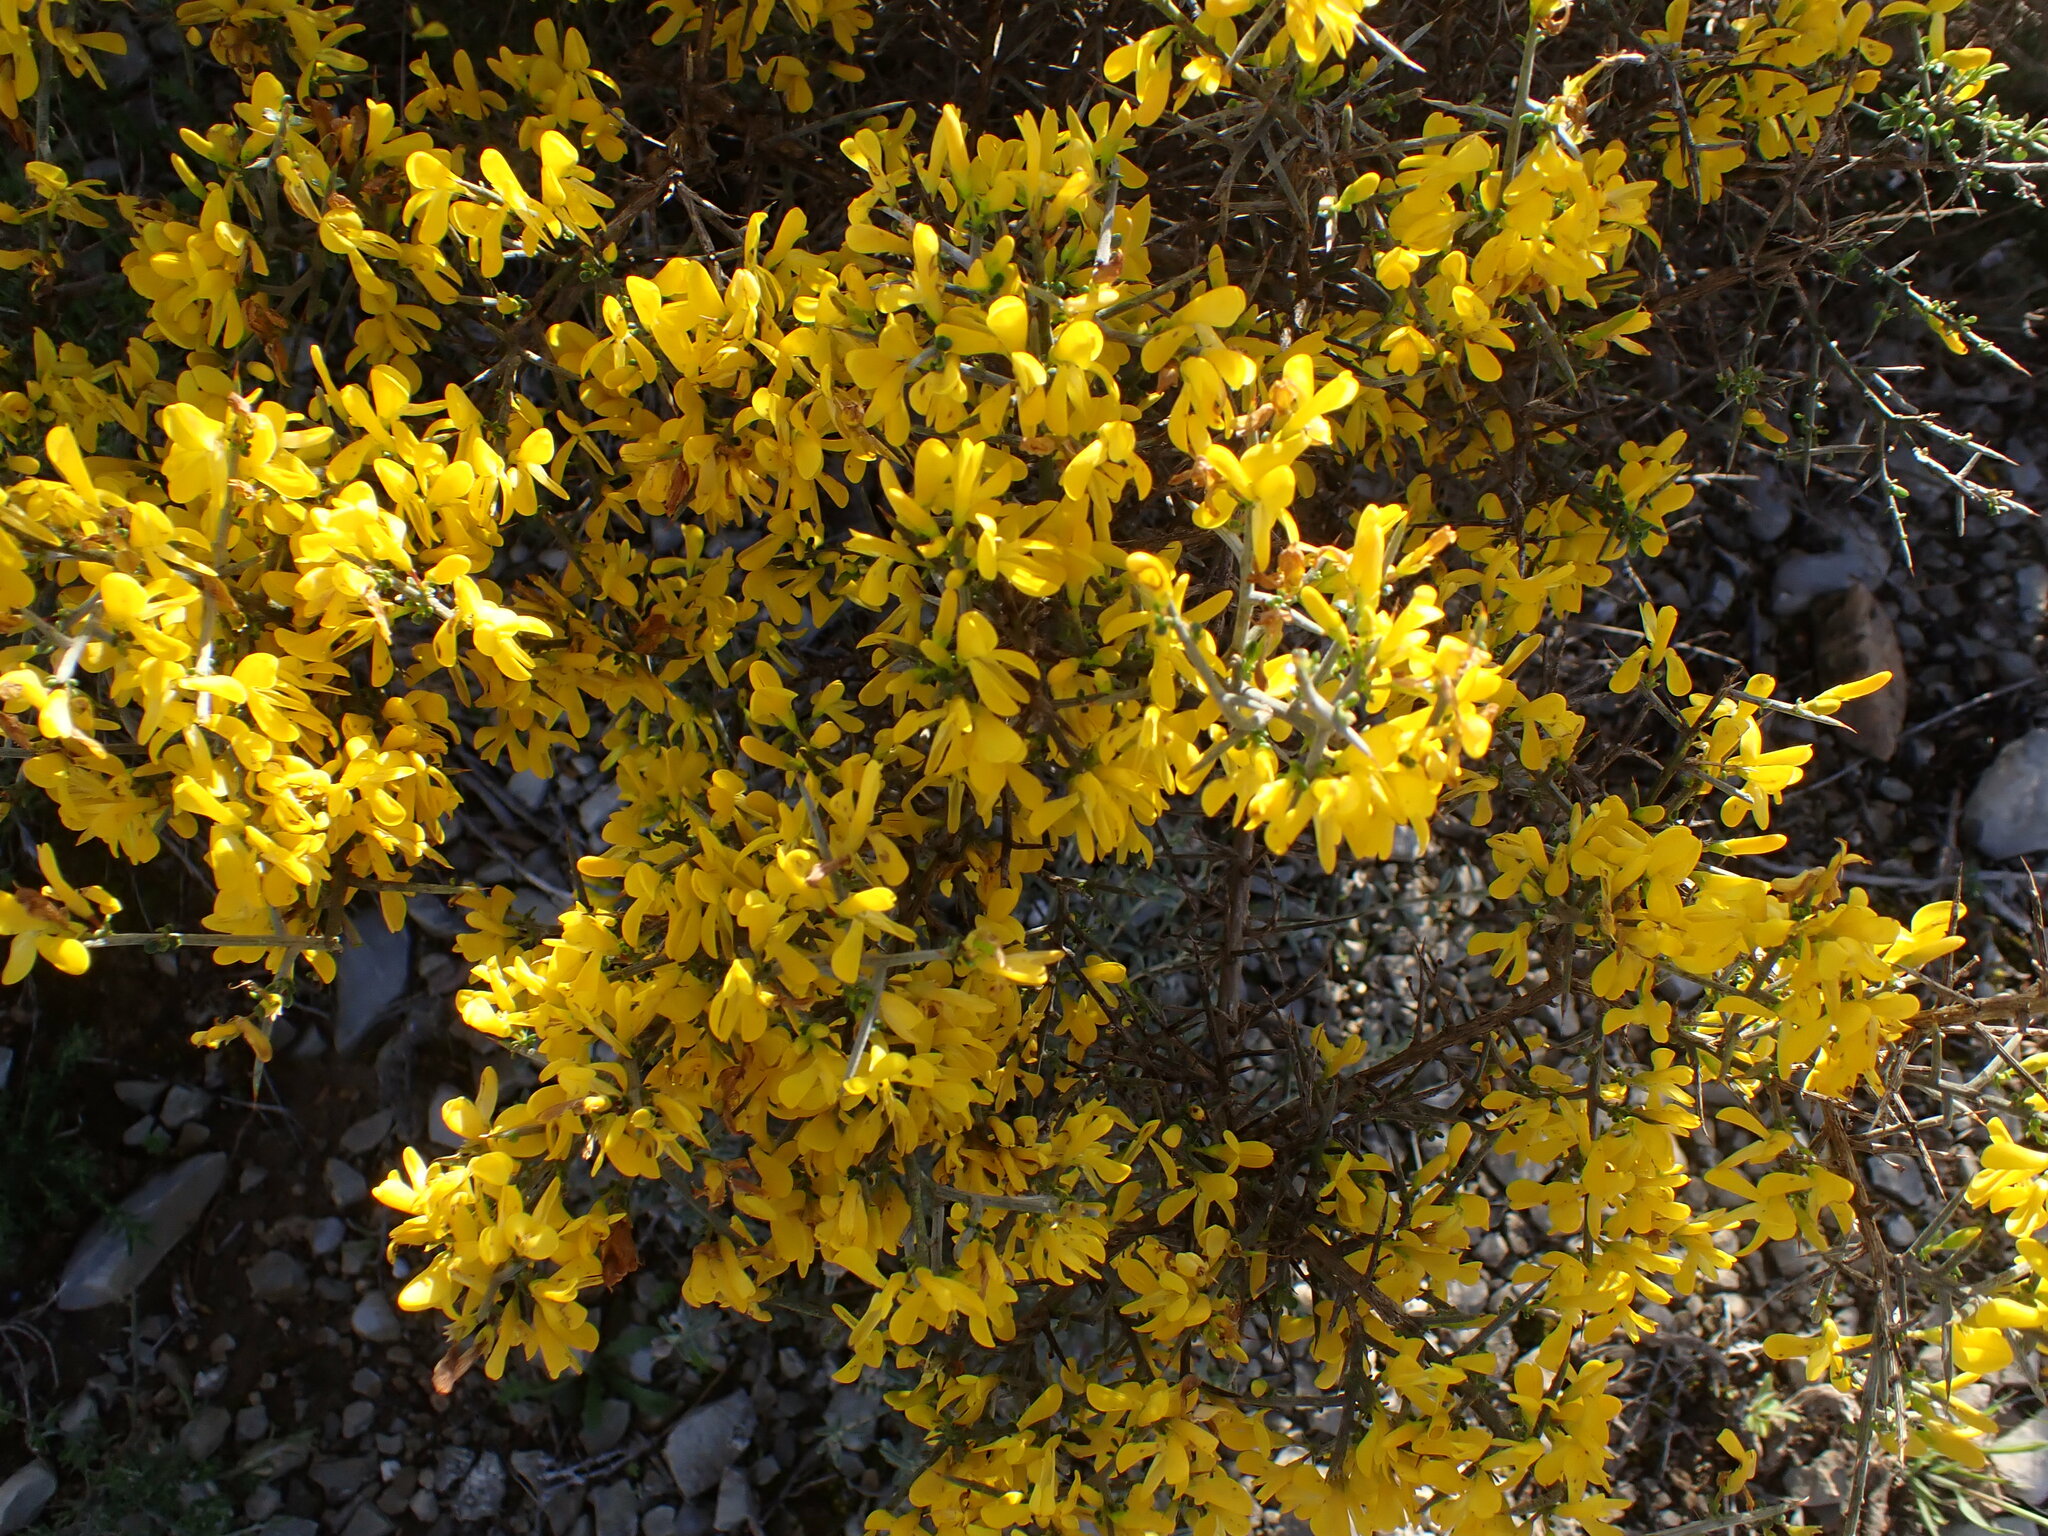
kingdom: Plantae
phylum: Tracheophyta
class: Magnoliopsida
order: Fabales
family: Fabaceae
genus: Genista
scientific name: Genista scorpius
